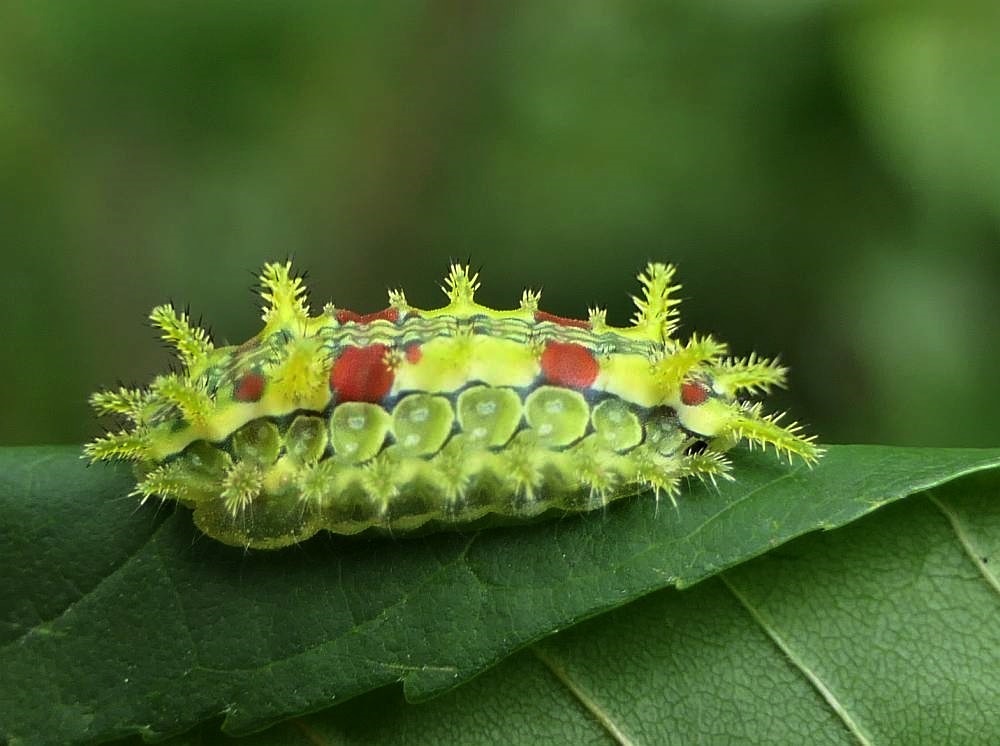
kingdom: Animalia
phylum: Arthropoda
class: Insecta
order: Lepidoptera
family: Limacodidae
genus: Euclea
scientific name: Euclea delphinii
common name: Spiny oak-slug moth
